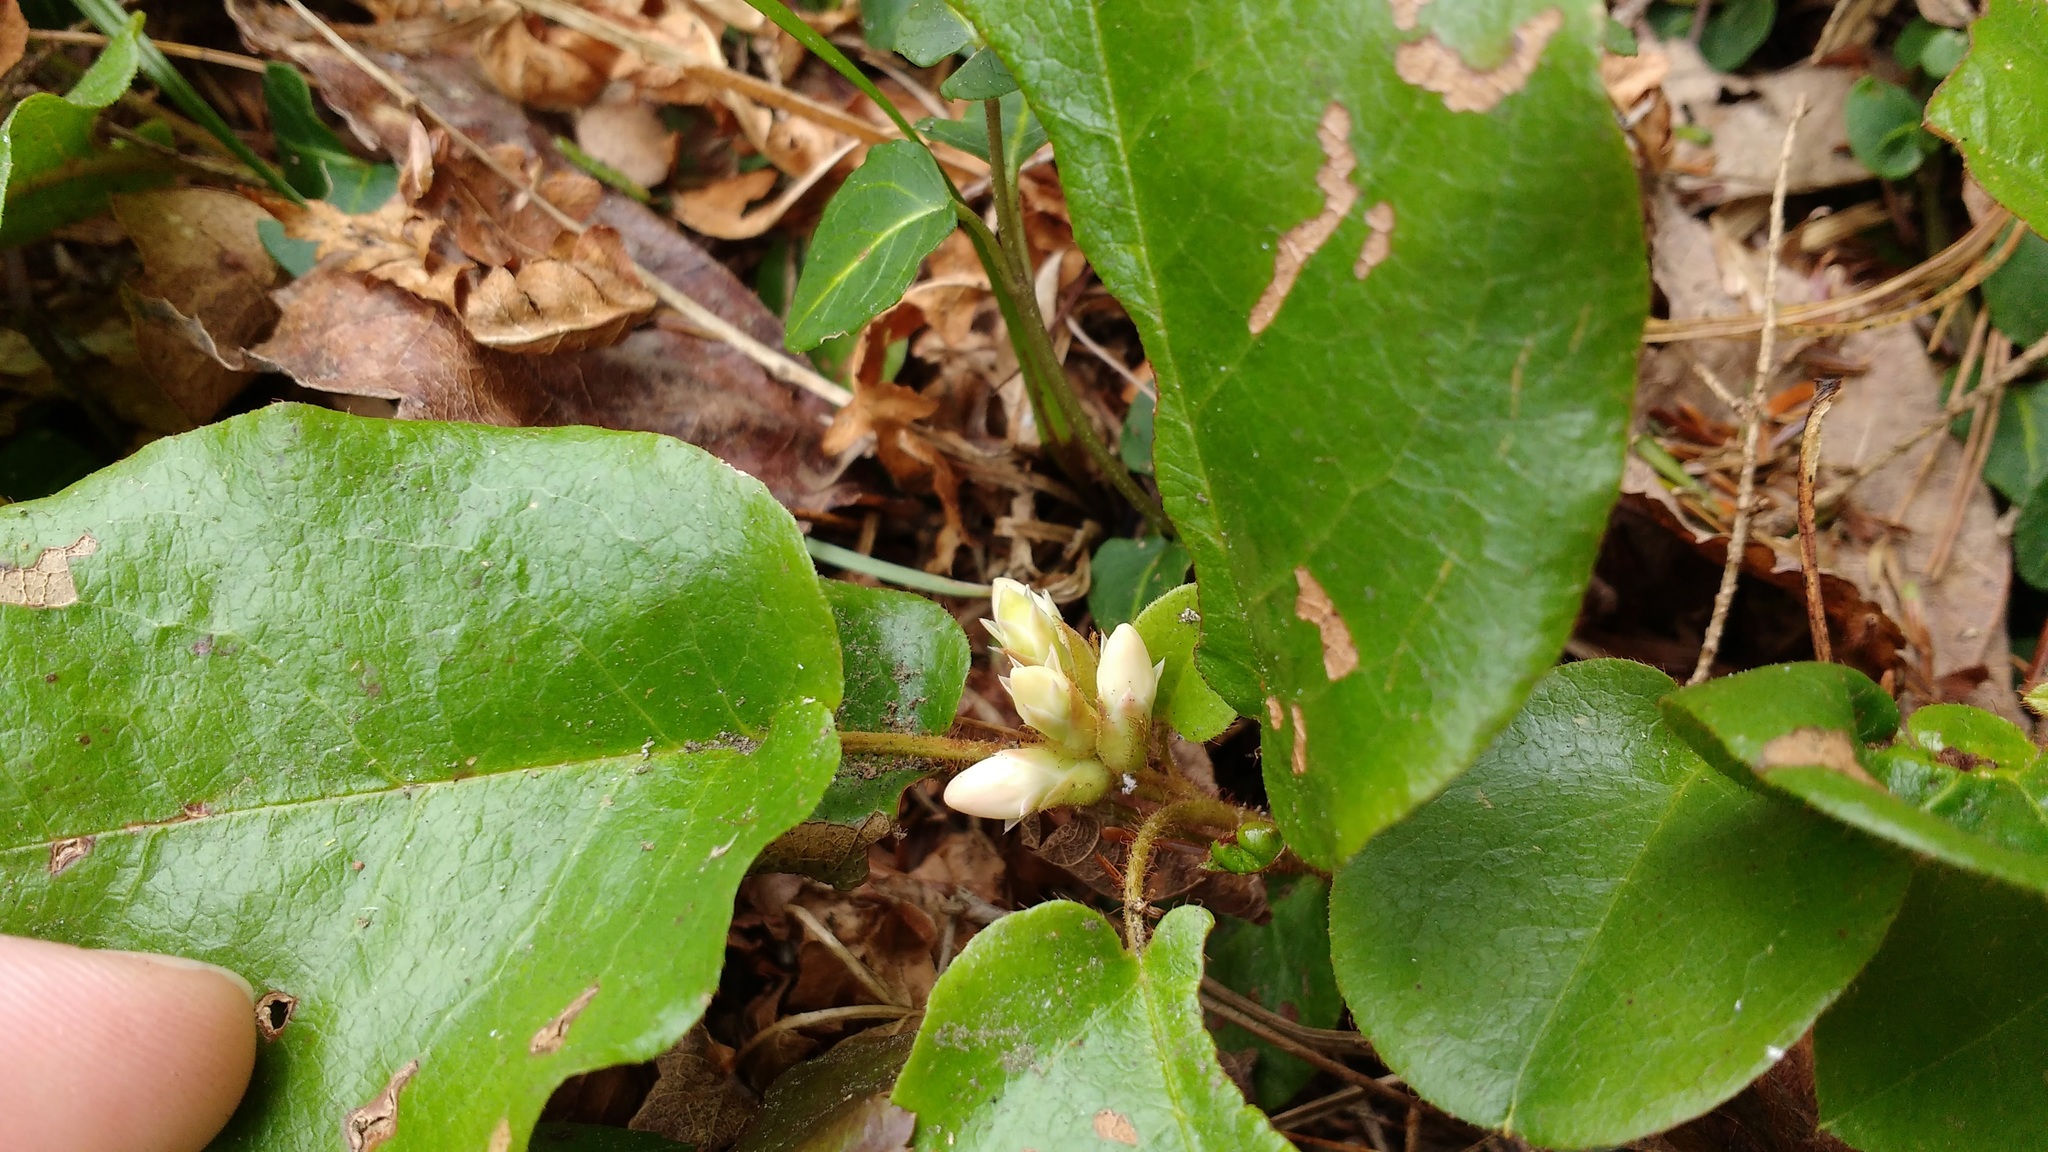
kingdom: Plantae
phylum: Tracheophyta
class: Magnoliopsida
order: Ericales
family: Ericaceae
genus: Epigaea
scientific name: Epigaea repens
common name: Gravelroot
